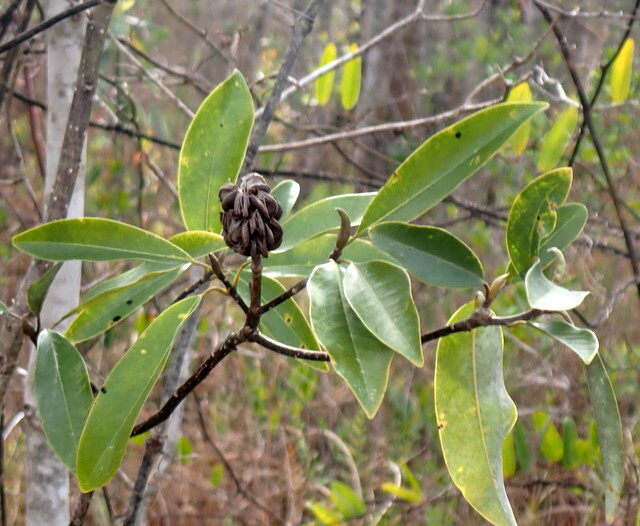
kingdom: Plantae
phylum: Tracheophyta
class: Magnoliopsida
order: Magnoliales
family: Magnoliaceae
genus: Magnolia
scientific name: Magnolia virginiana
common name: Swamp bay
